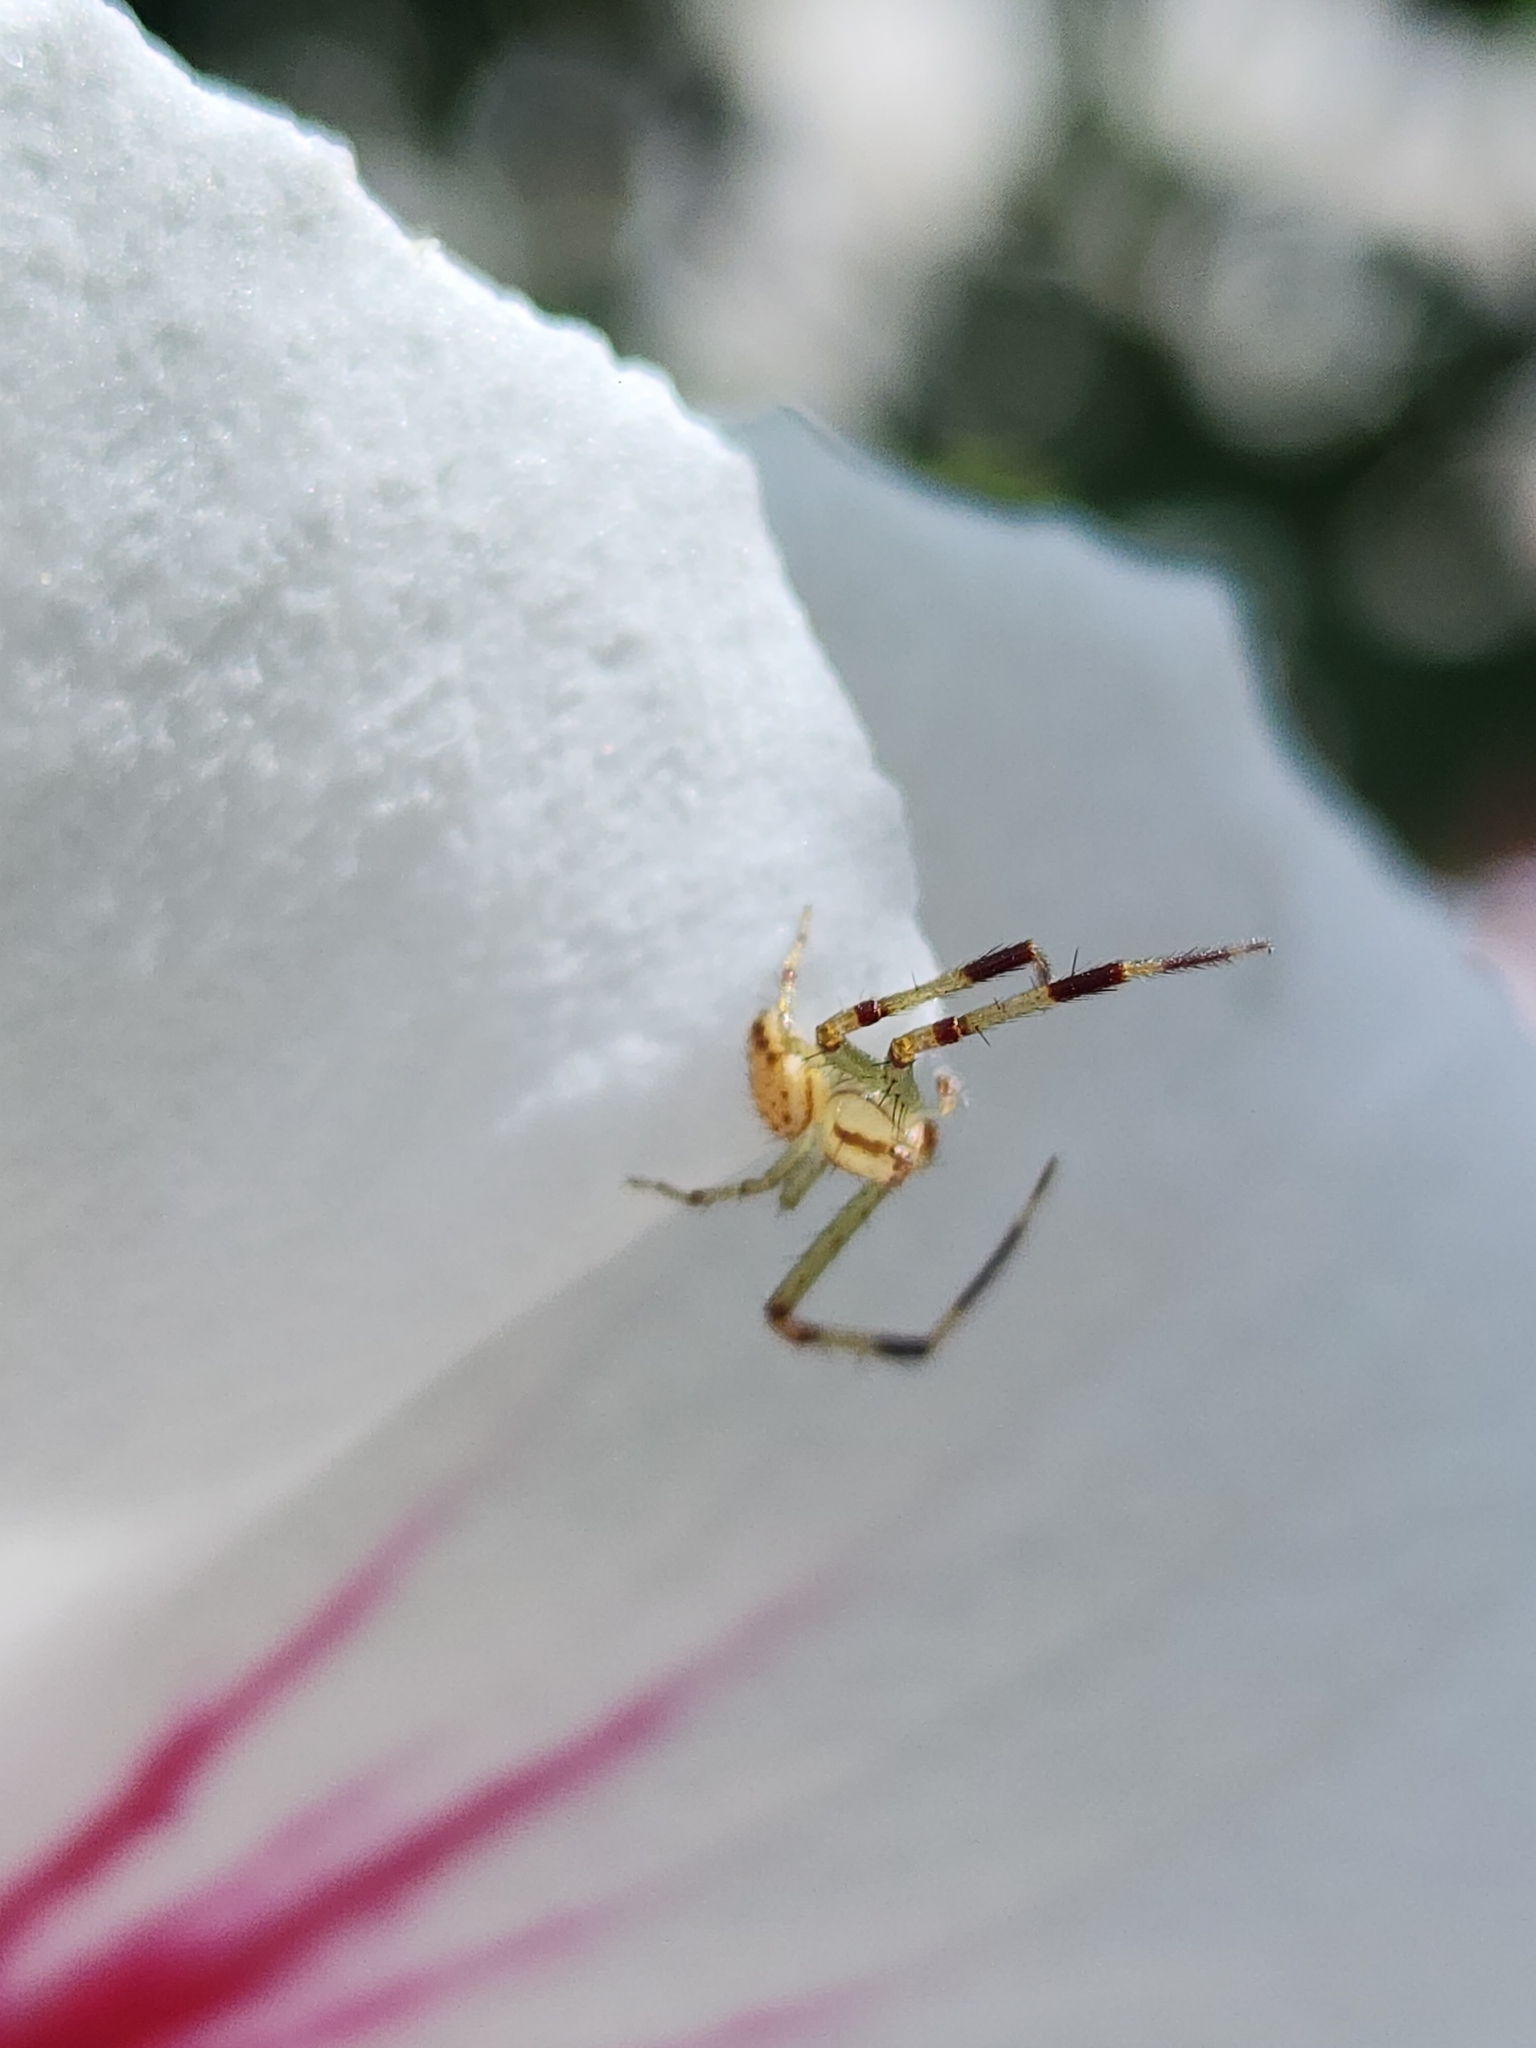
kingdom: Animalia
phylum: Arthropoda
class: Arachnida
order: Araneae
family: Thomisidae
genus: Misumenops
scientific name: Misumenops
